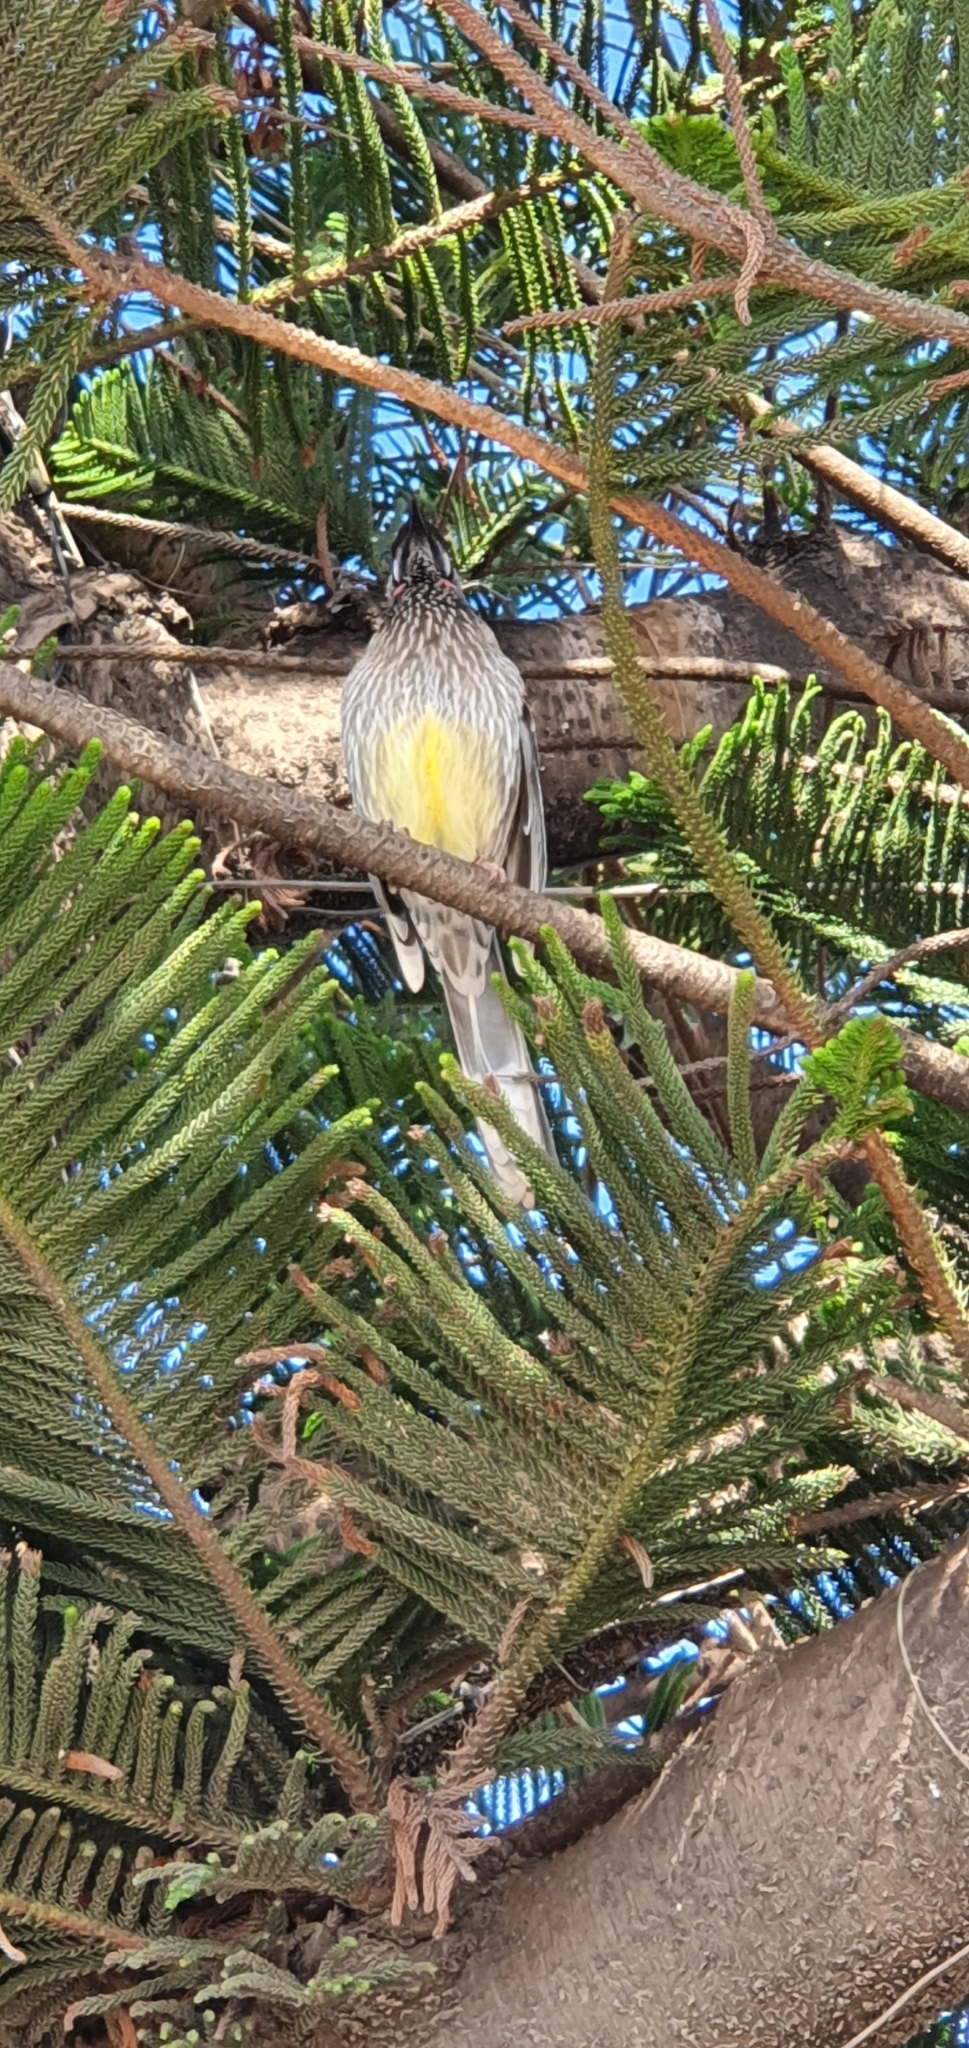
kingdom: Animalia
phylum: Chordata
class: Aves
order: Passeriformes
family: Meliphagidae
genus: Anthochaera
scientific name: Anthochaera carunculata
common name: Red wattlebird
